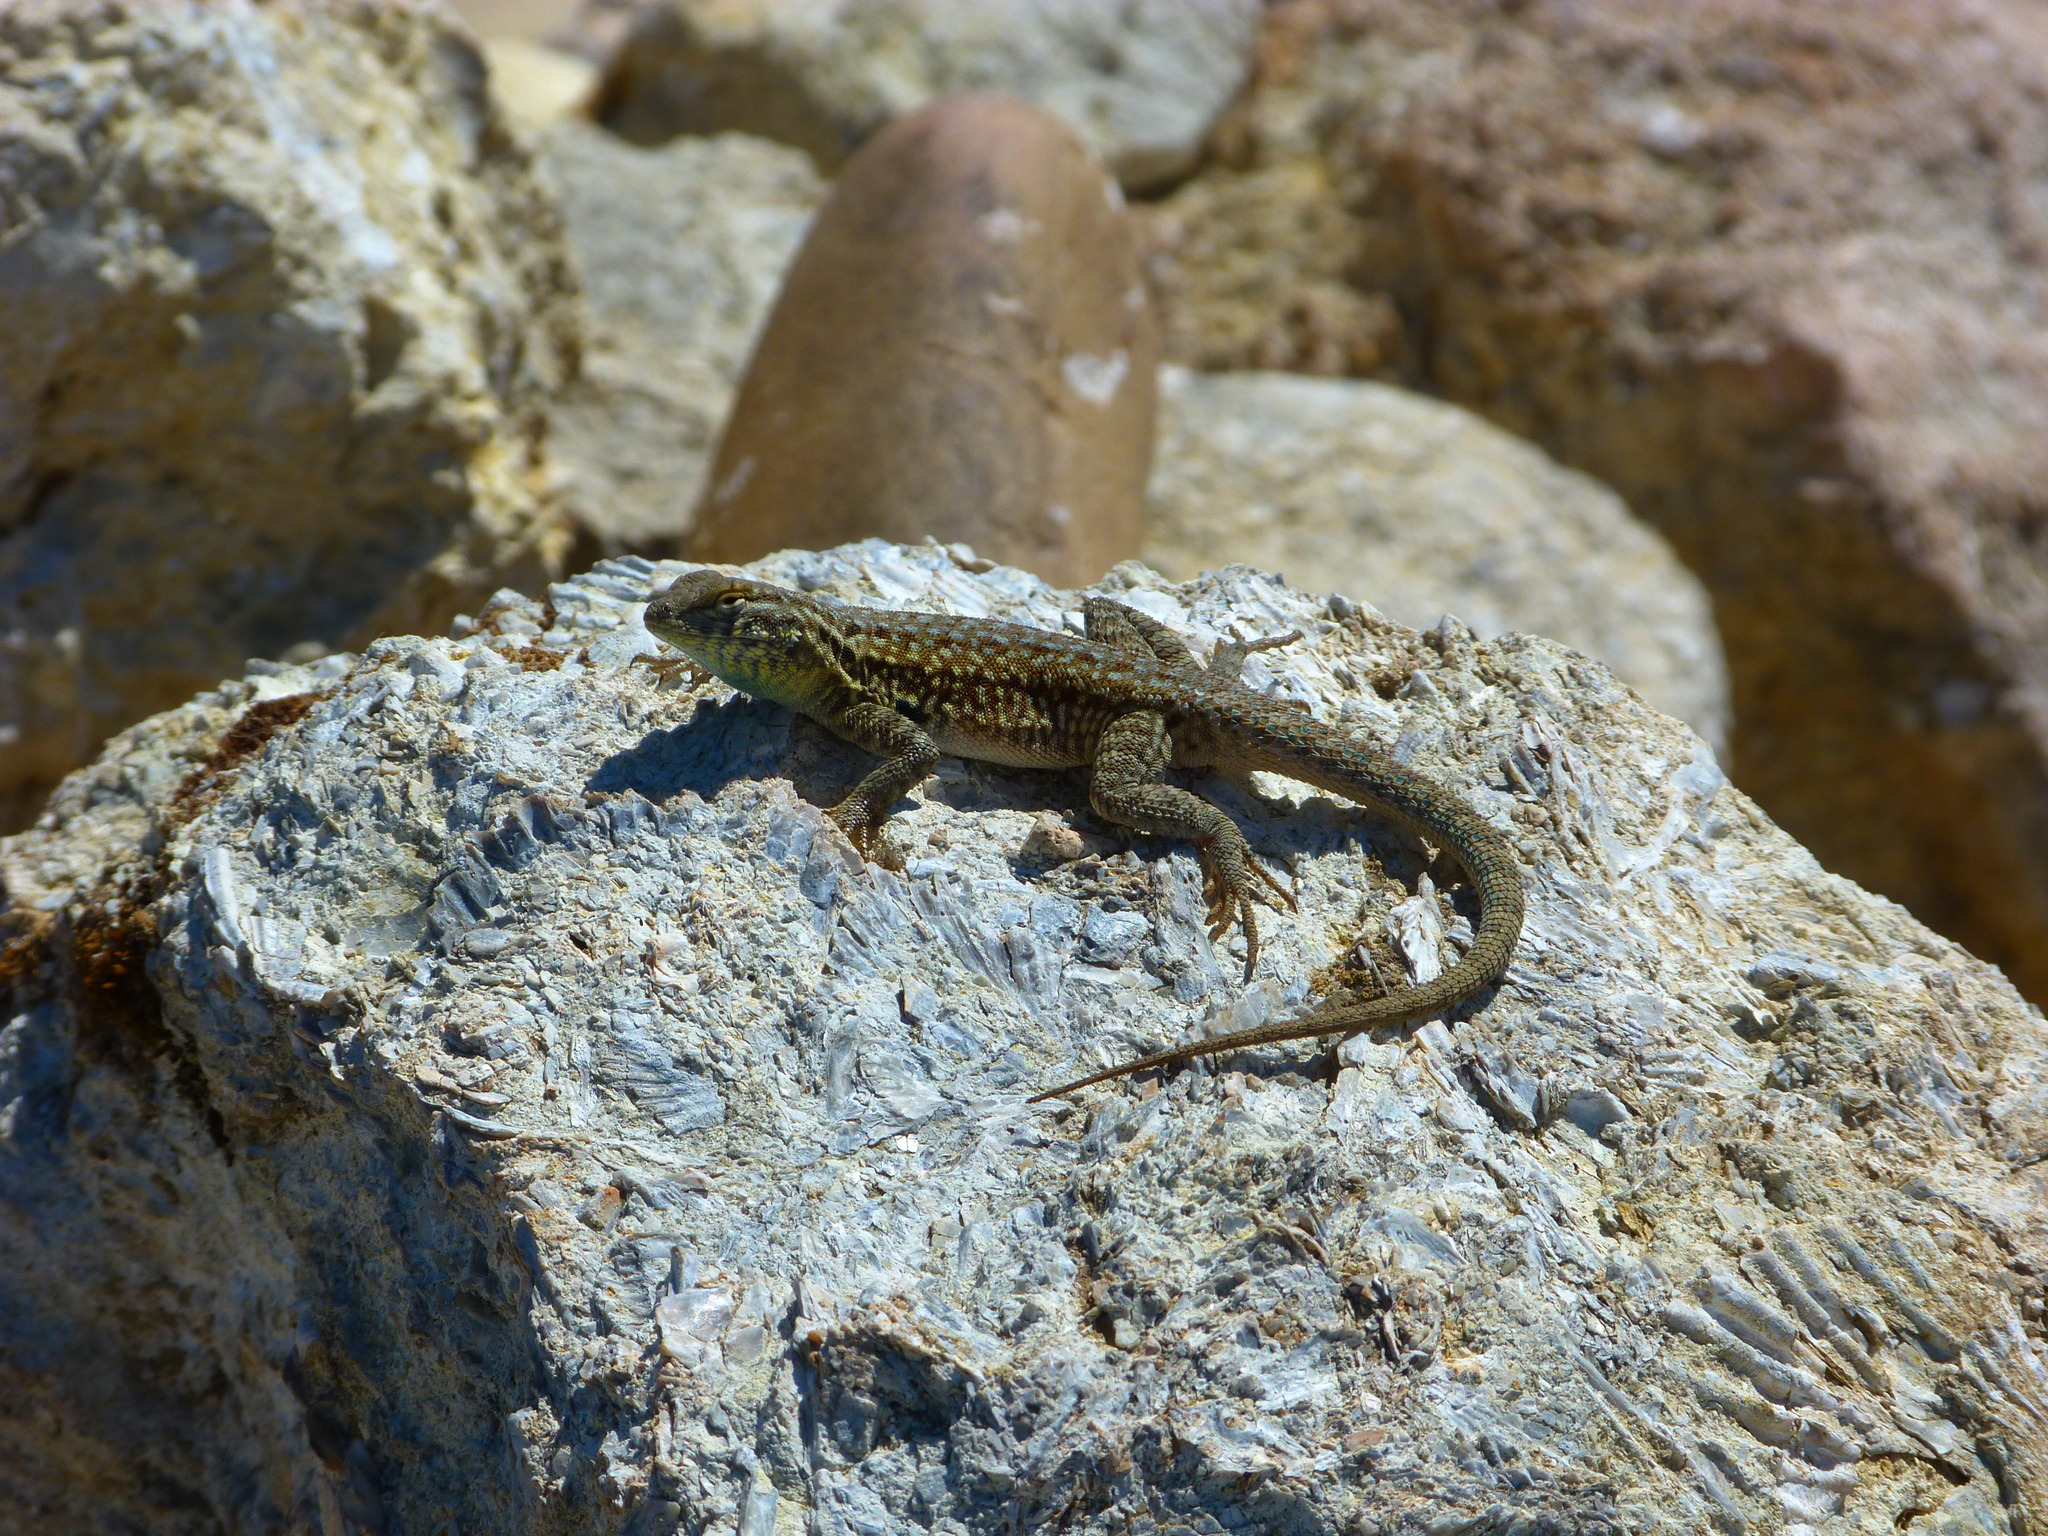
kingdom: Animalia
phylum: Chordata
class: Squamata
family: Phrynosomatidae
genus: Uta
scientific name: Uta stansburiana
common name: Side-blotched lizard
